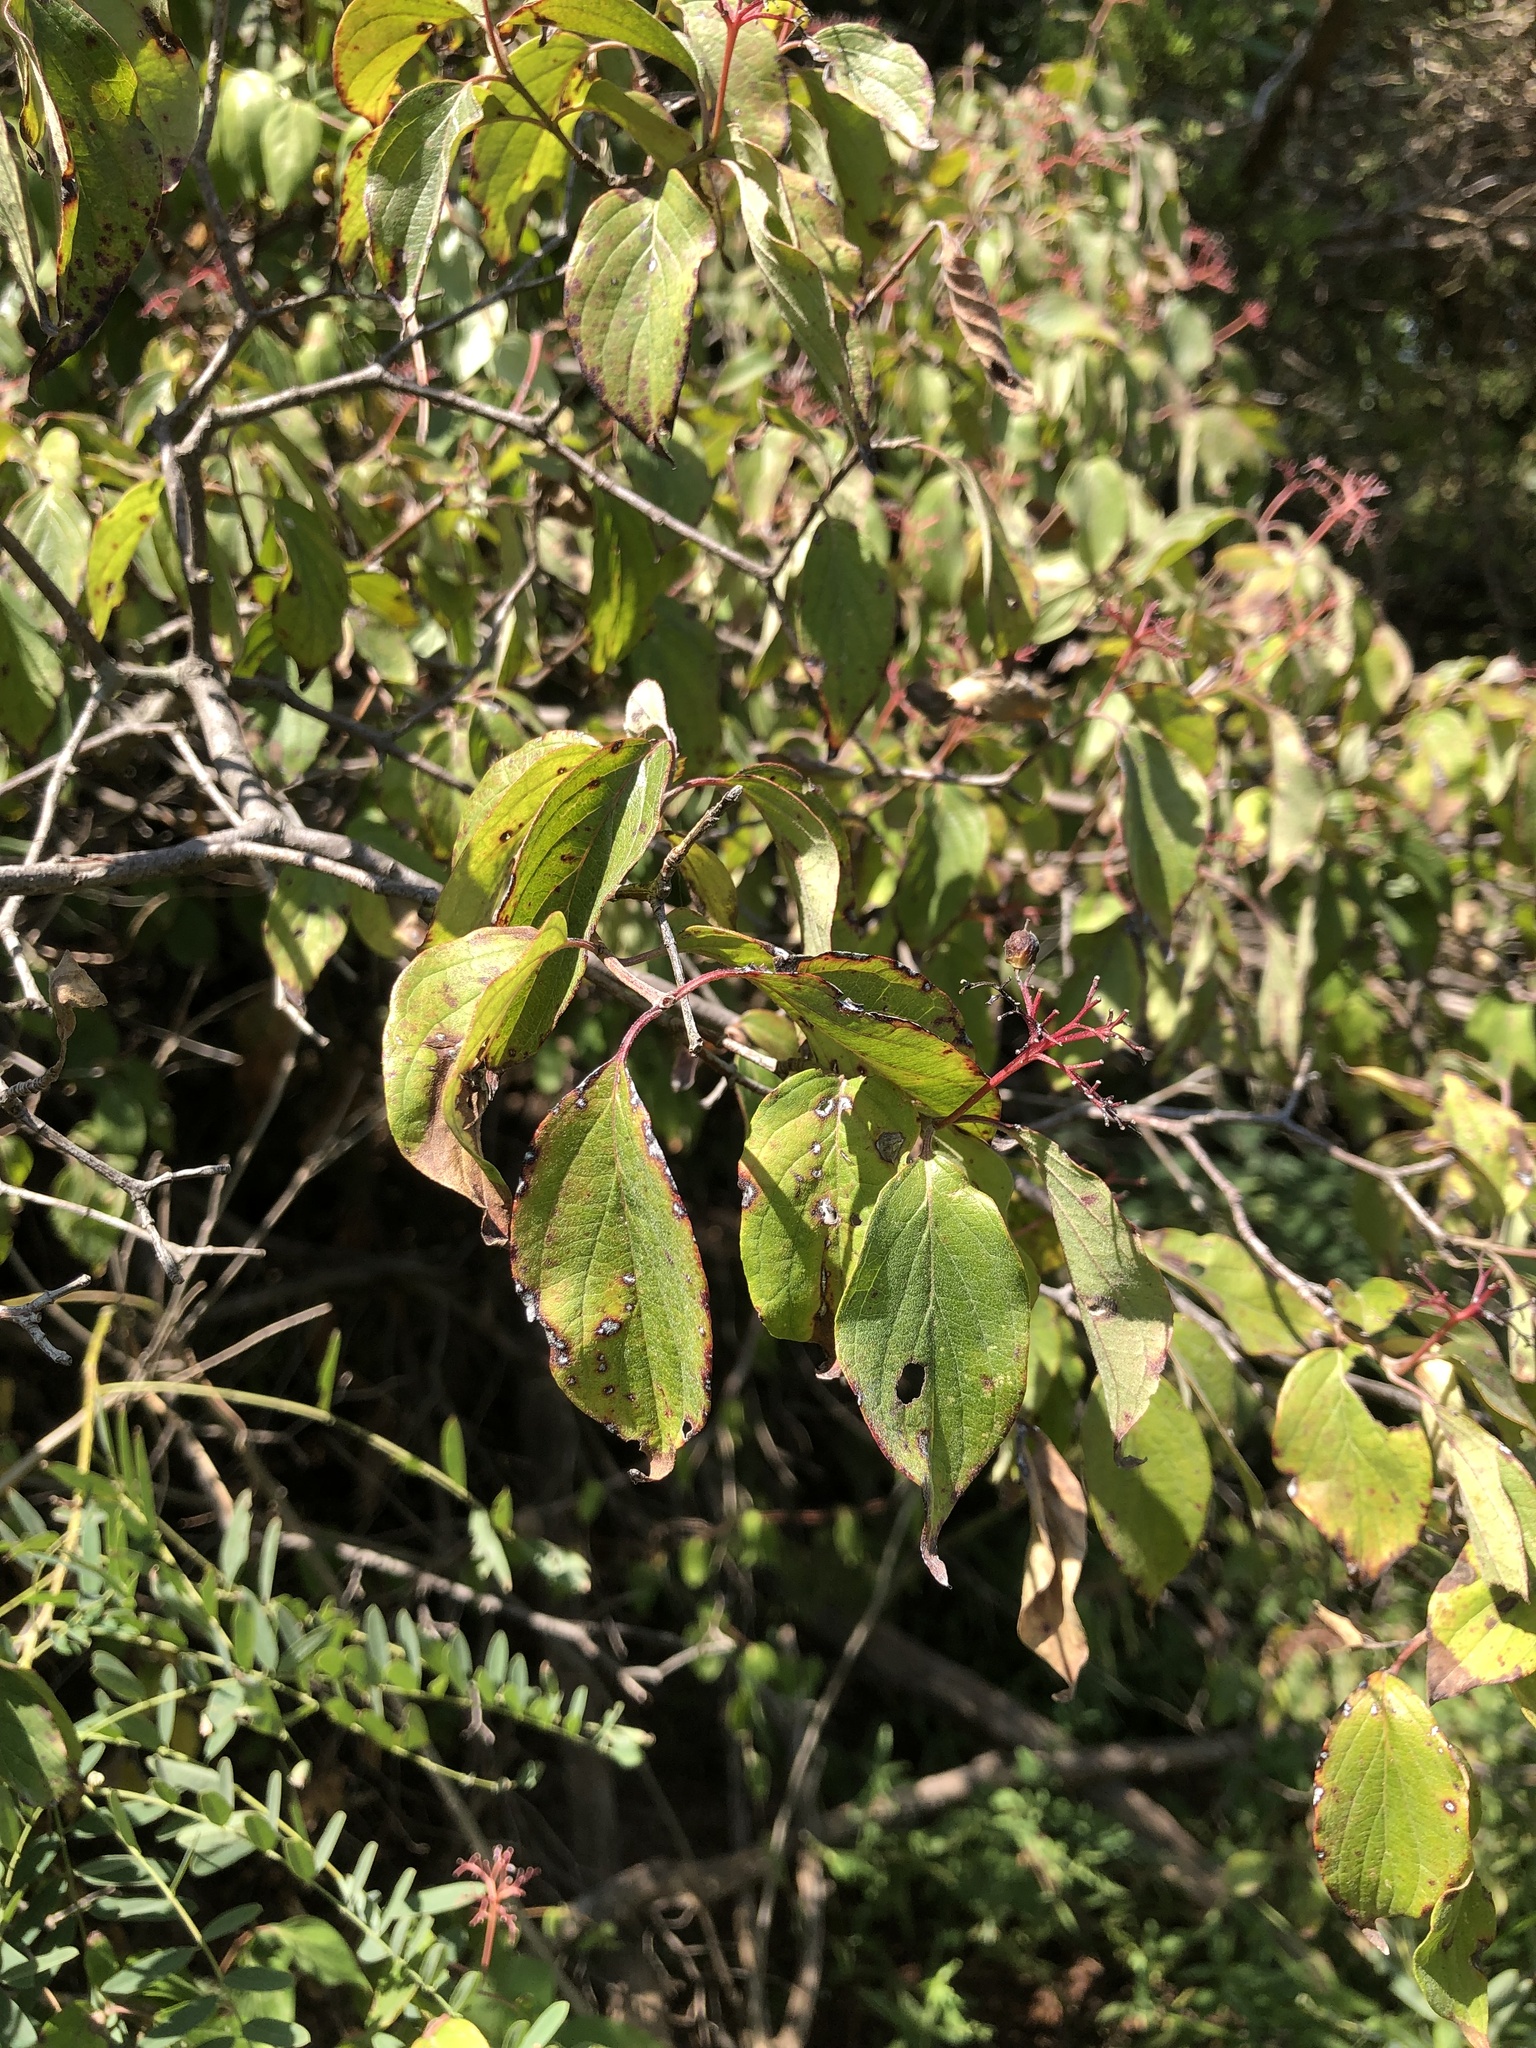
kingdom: Plantae
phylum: Tracheophyta
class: Magnoliopsida
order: Cornales
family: Cornaceae
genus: Cornus
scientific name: Cornus drummondii
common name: Rough-leaf dogwood
